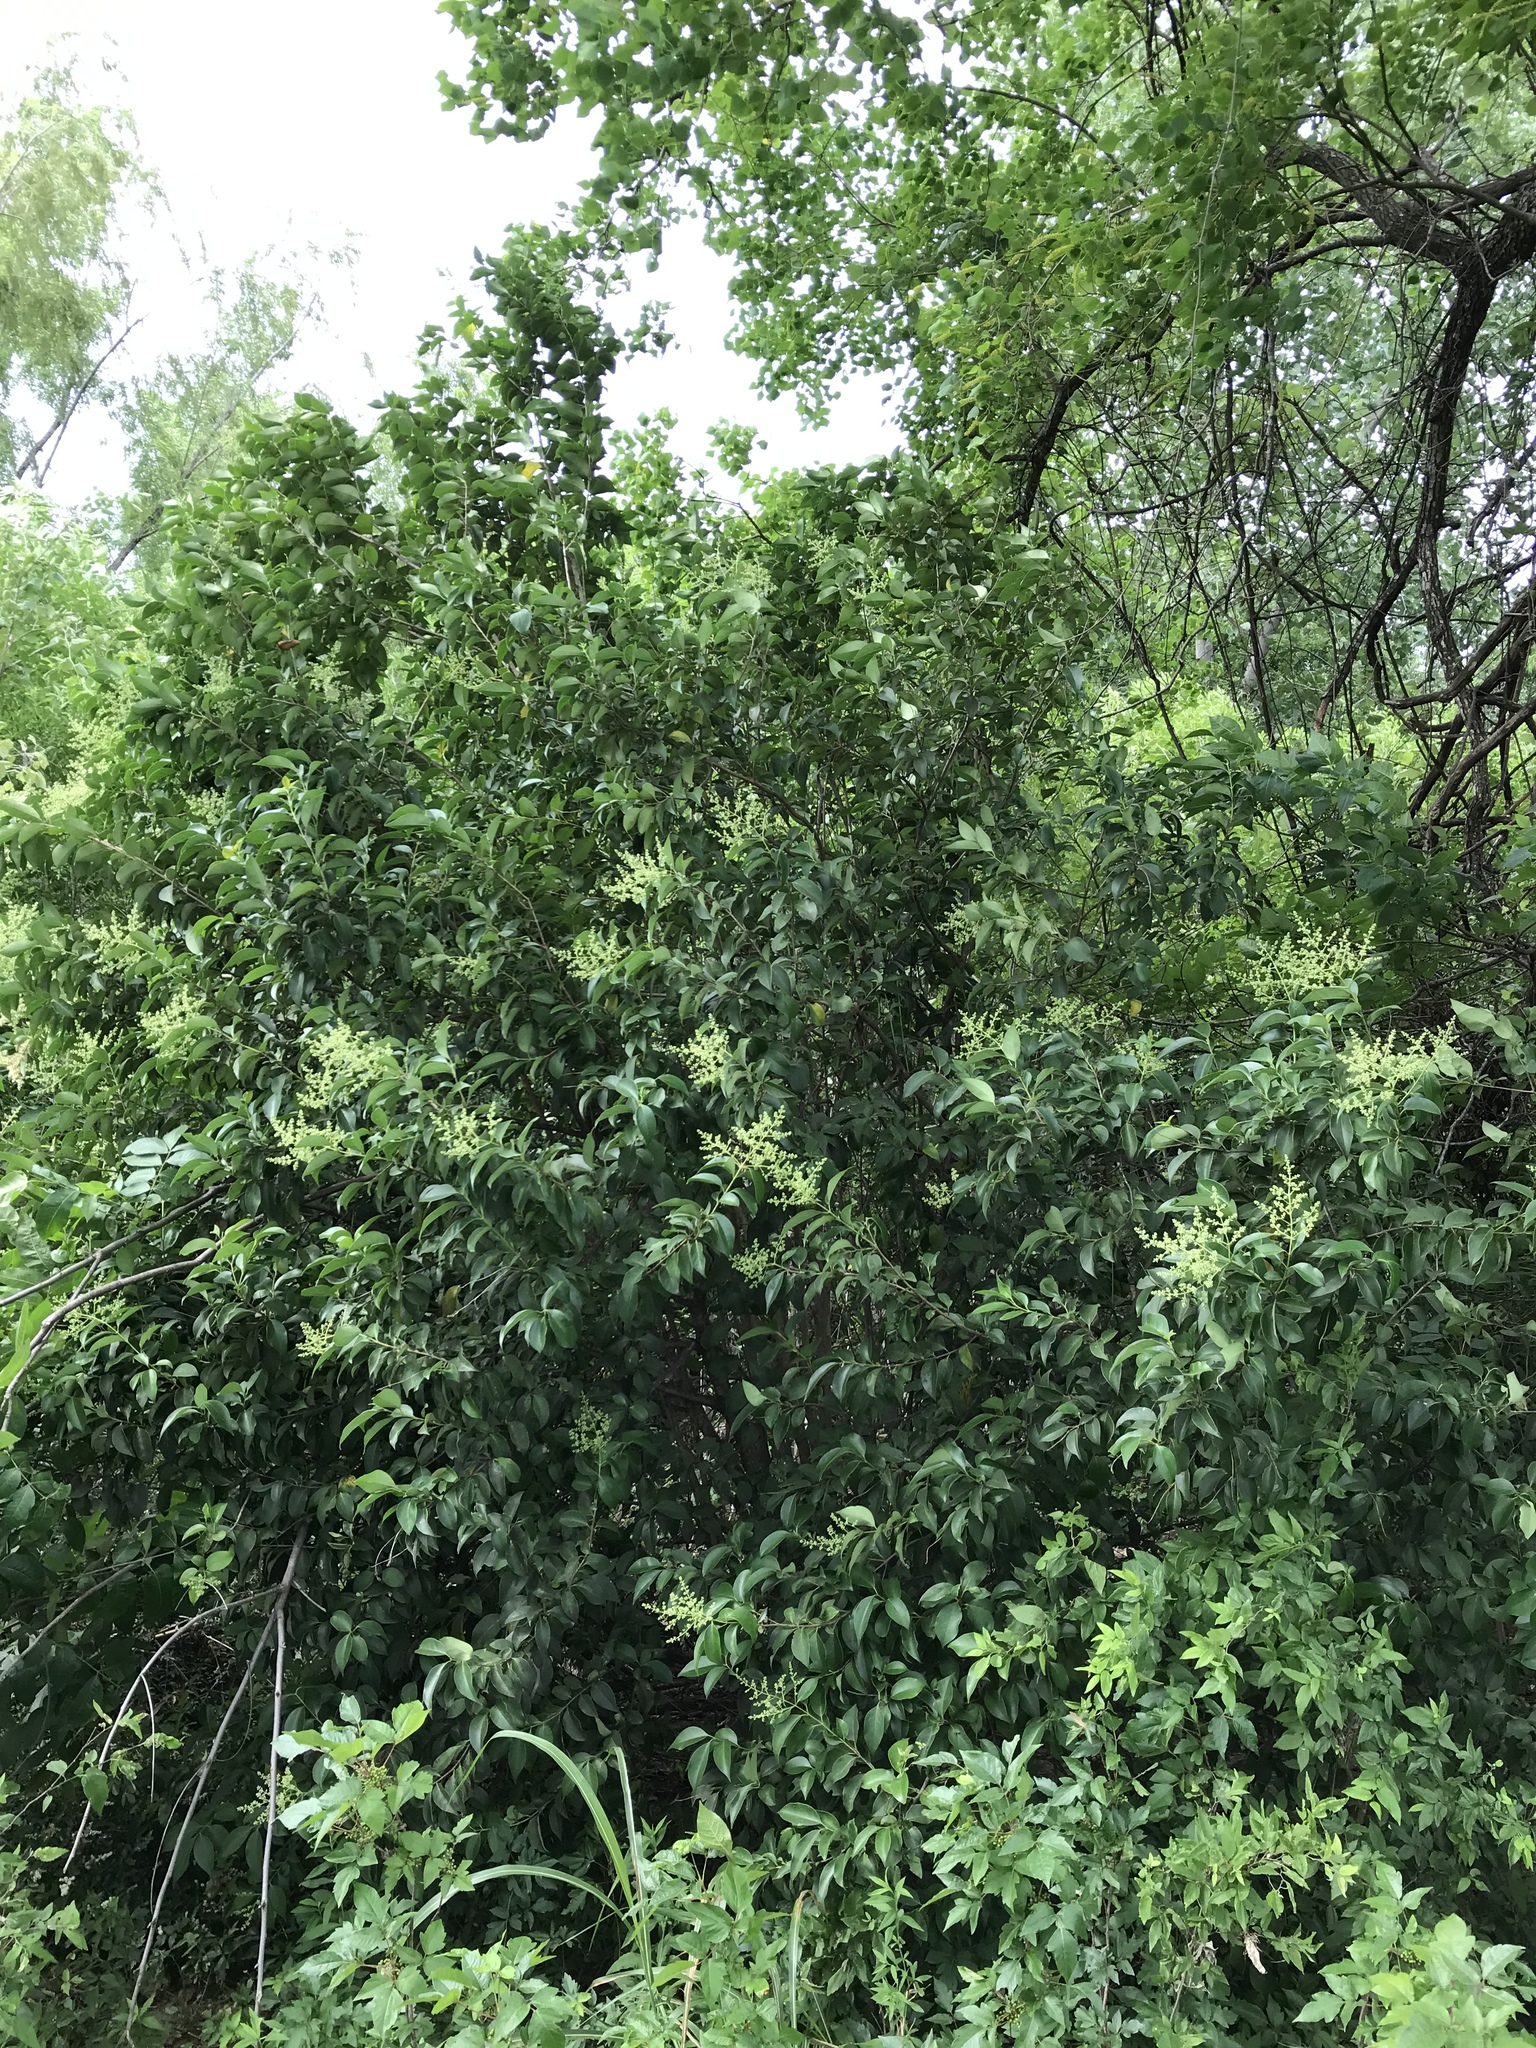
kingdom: Plantae
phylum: Tracheophyta
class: Magnoliopsida
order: Lamiales
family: Oleaceae
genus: Ligustrum
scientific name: Ligustrum lucidum
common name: Glossy privet
